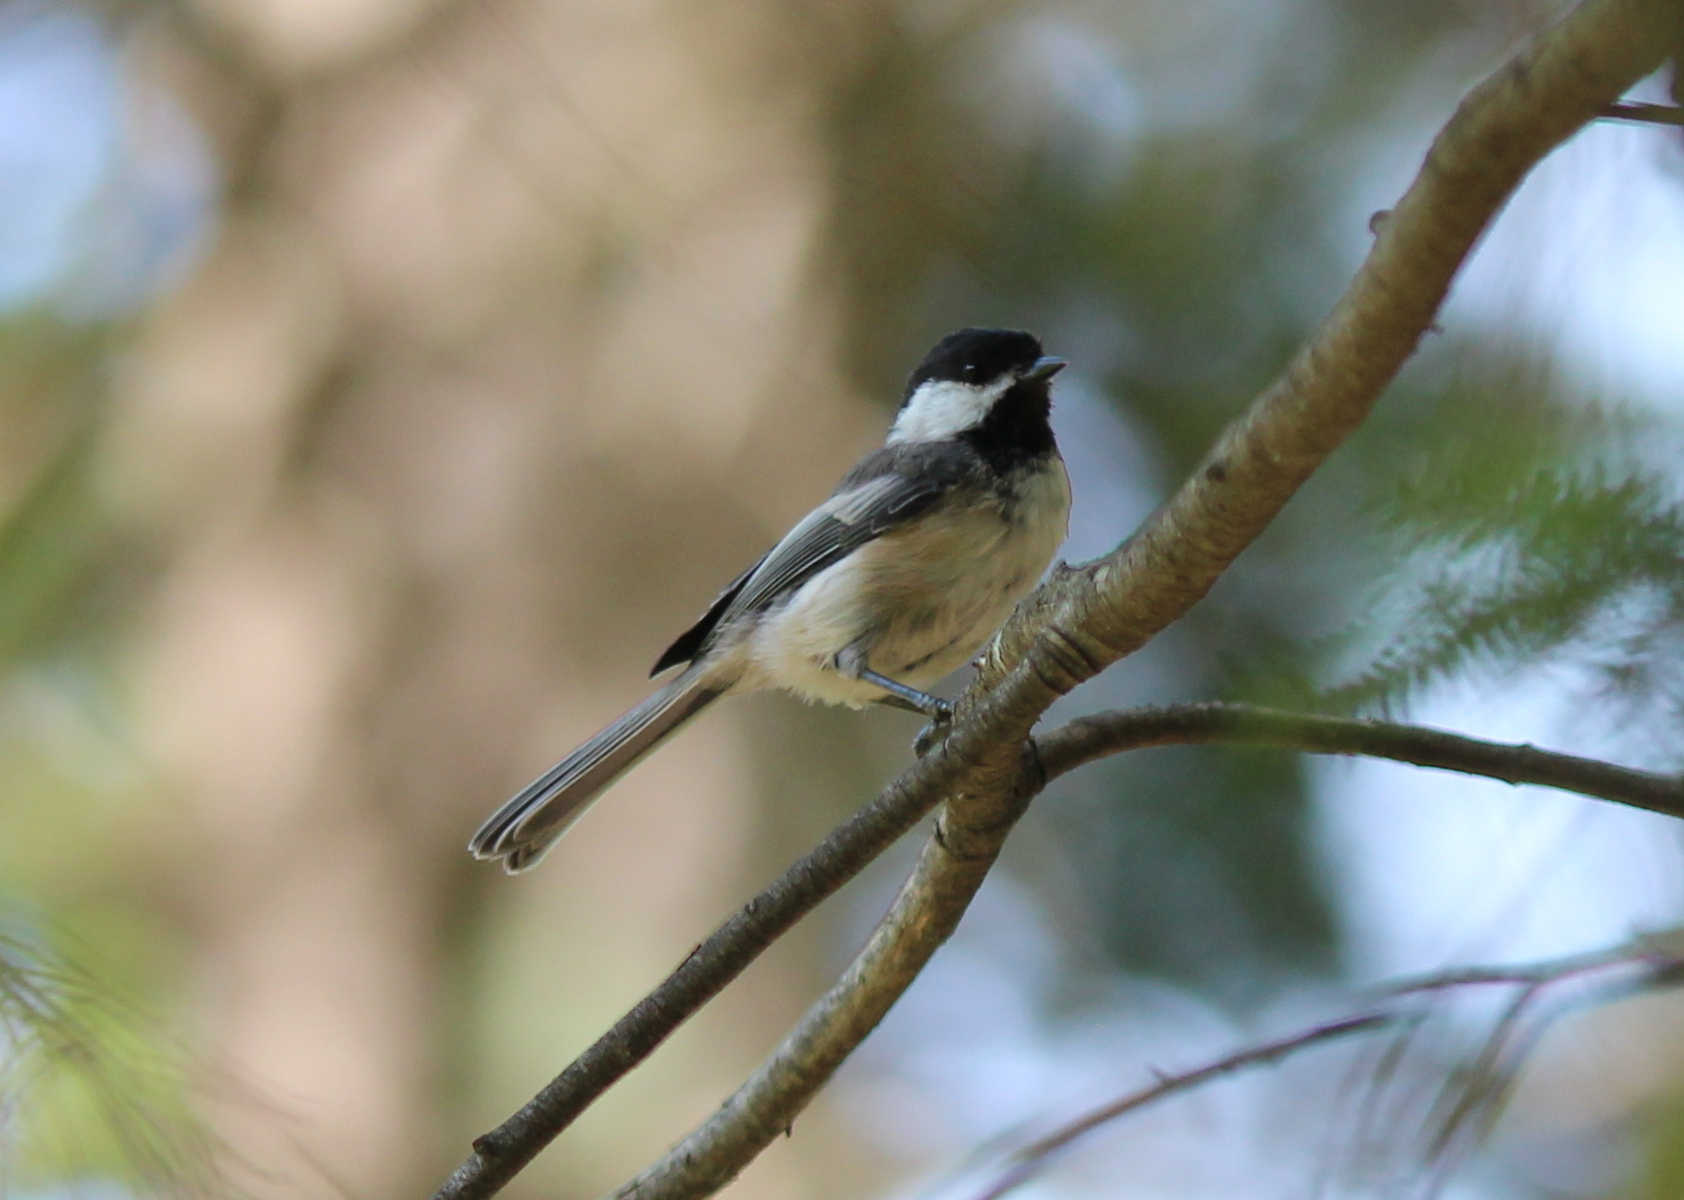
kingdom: Animalia
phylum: Chordata
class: Aves
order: Passeriformes
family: Paridae
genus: Poecile
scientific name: Poecile atricapillus
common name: Black-capped chickadee
